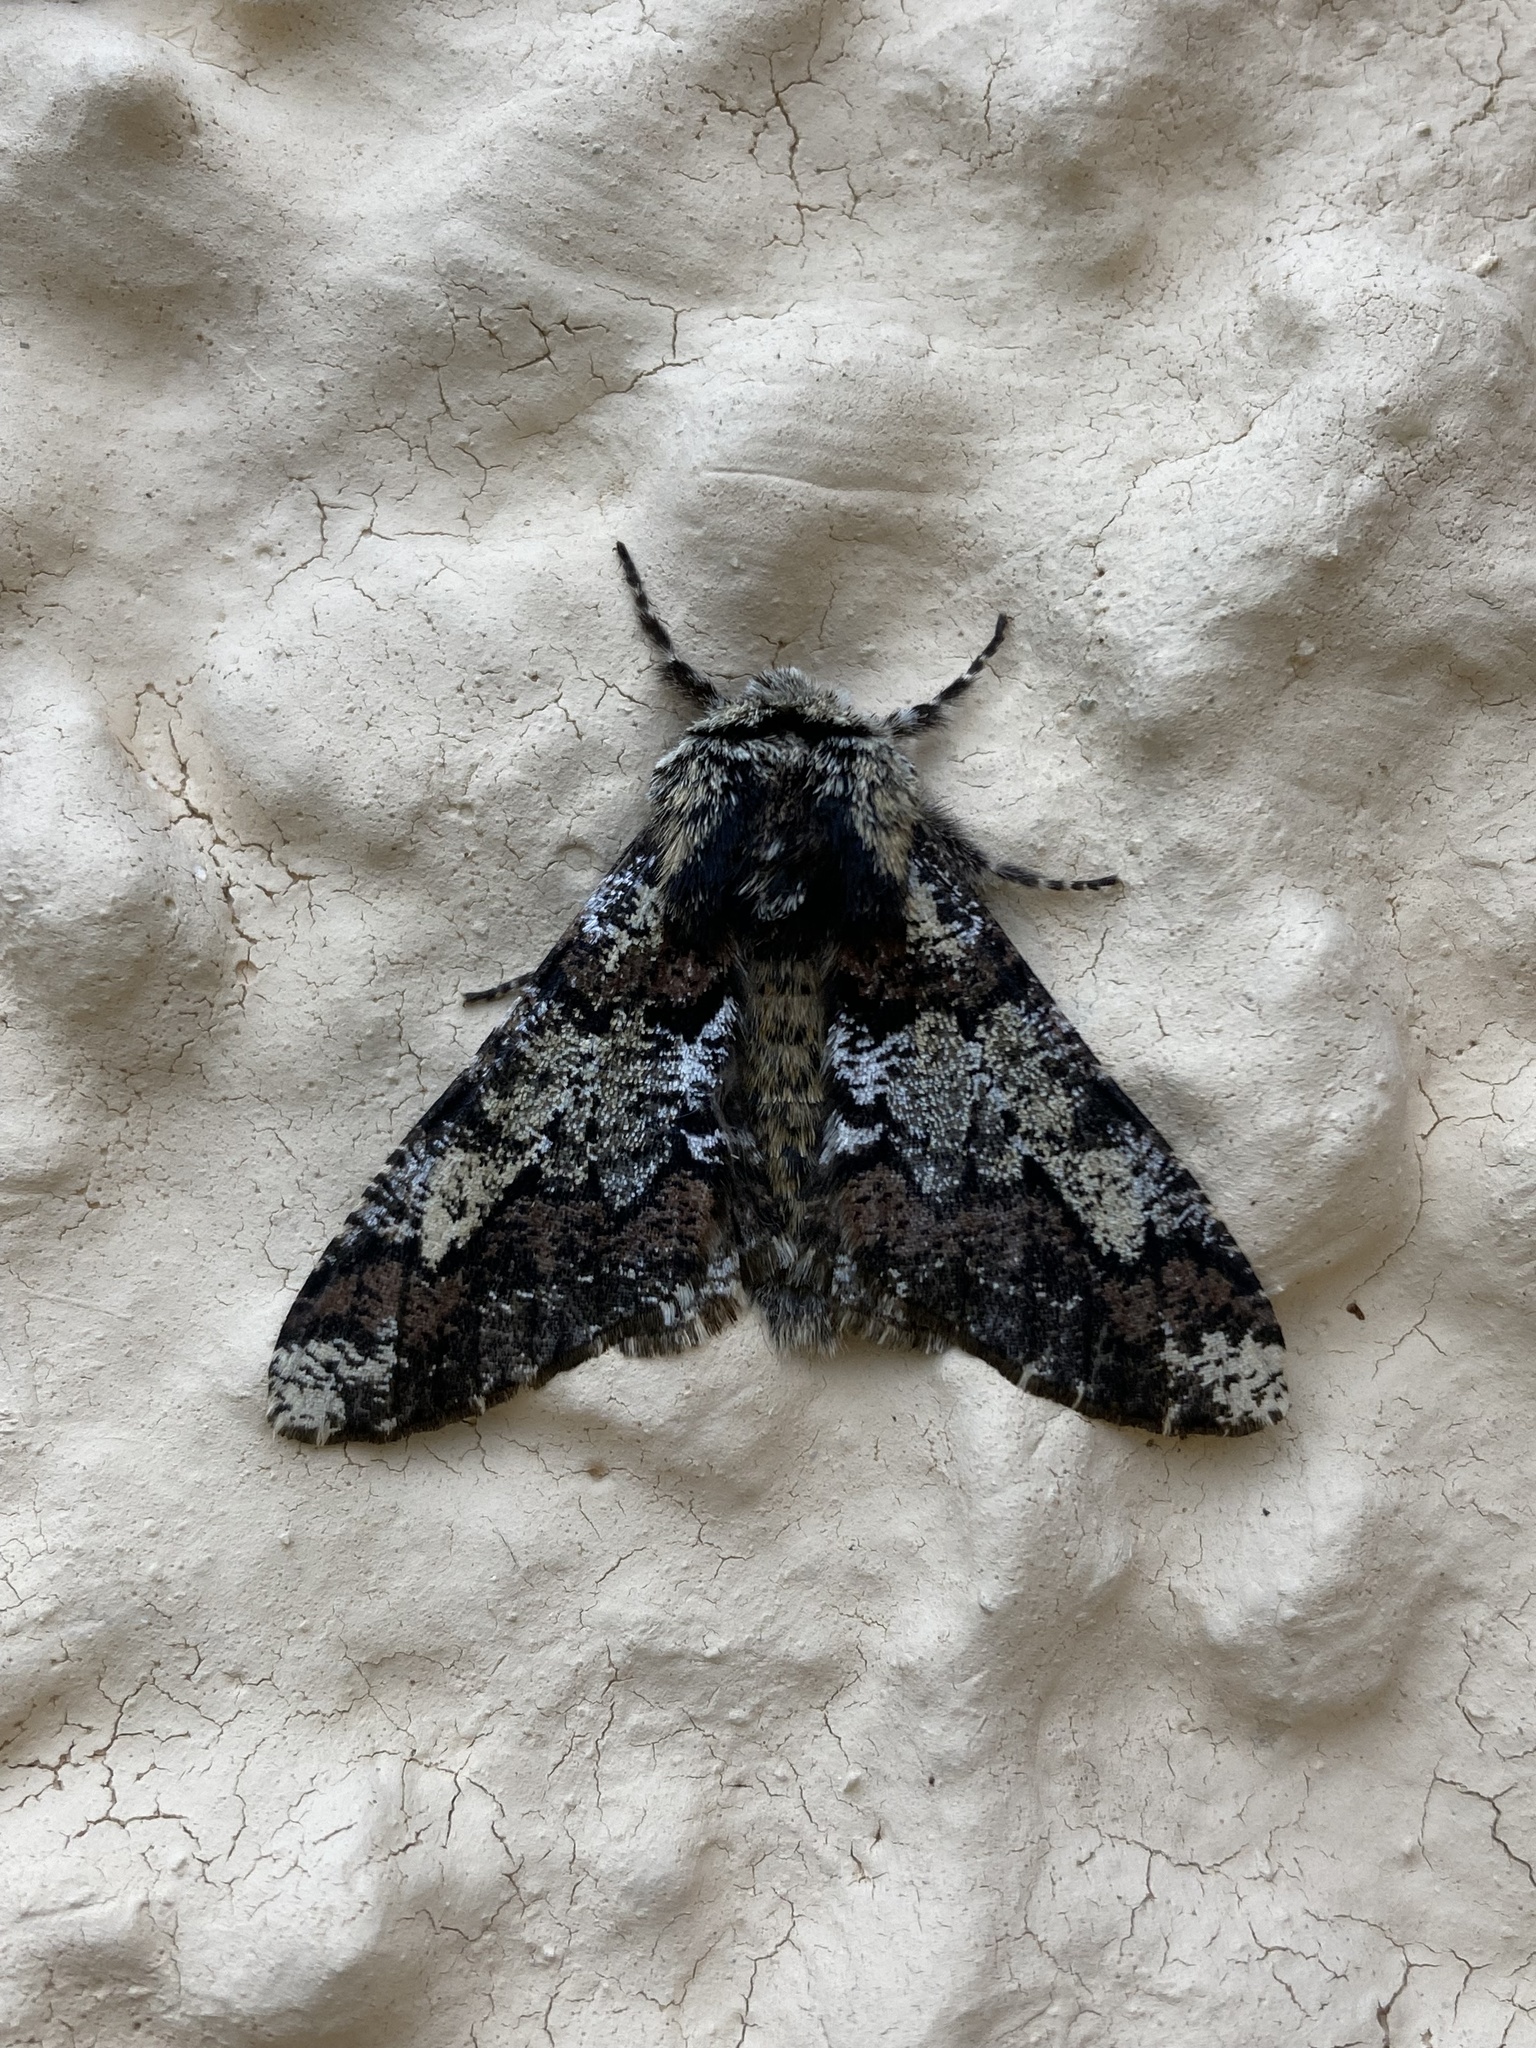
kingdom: Animalia
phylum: Arthropoda
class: Insecta
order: Lepidoptera
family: Geometridae
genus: Biston
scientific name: Biston strataria
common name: Oak beauty
